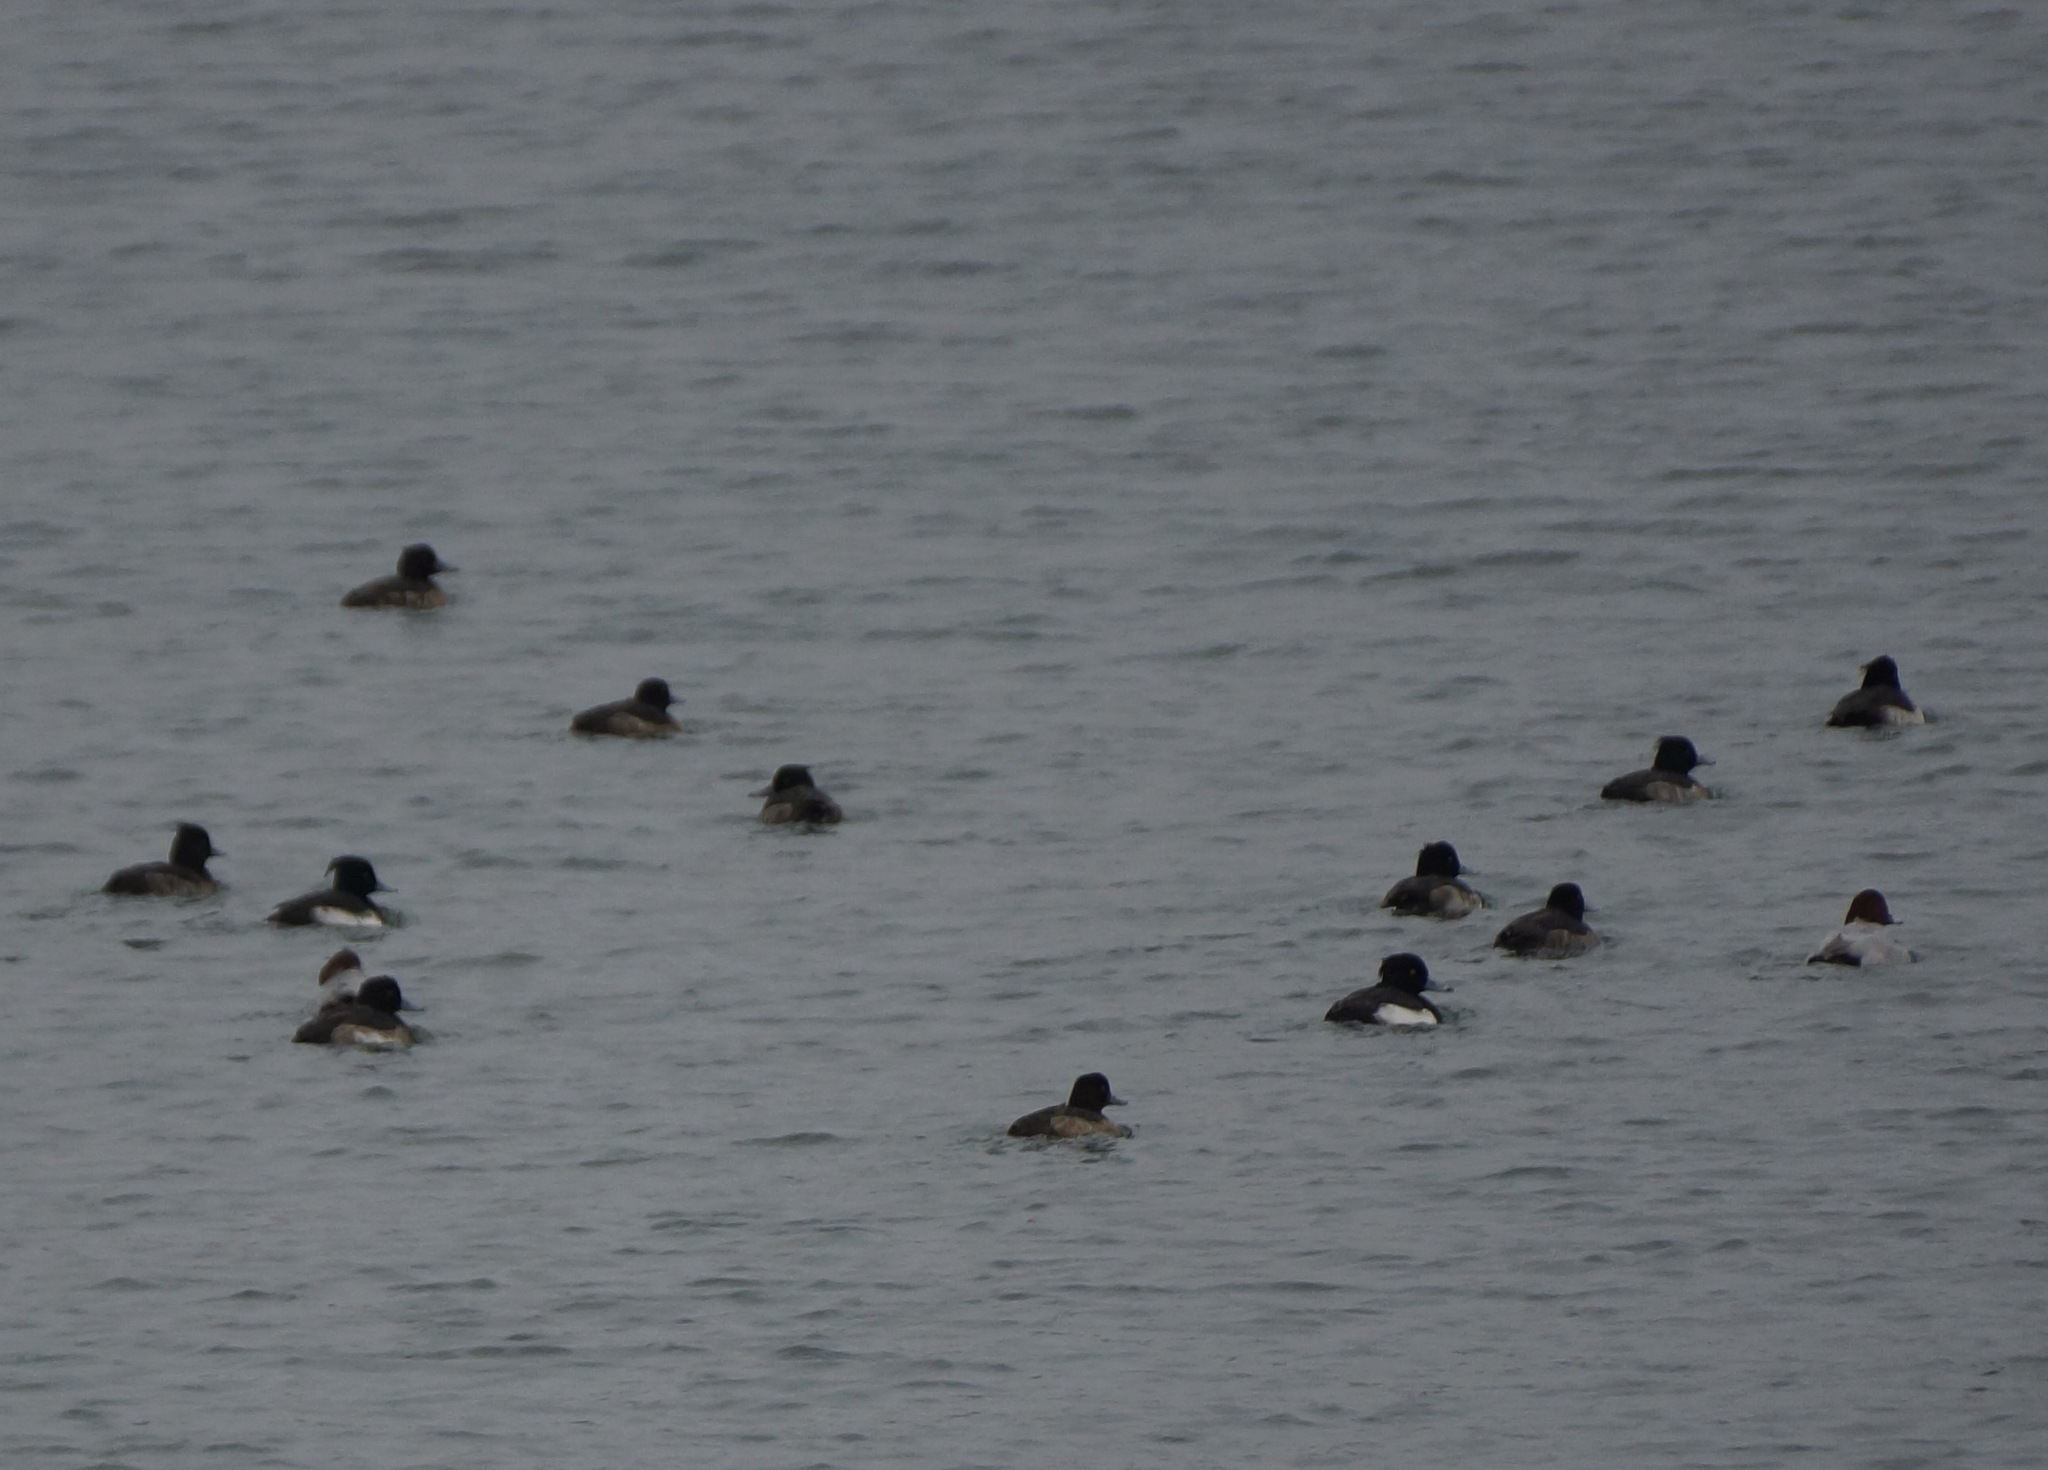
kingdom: Animalia
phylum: Chordata
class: Aves
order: Anseriformes
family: Anatidae
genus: Aythya
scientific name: Aythya fuligula
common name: Tufted duck
